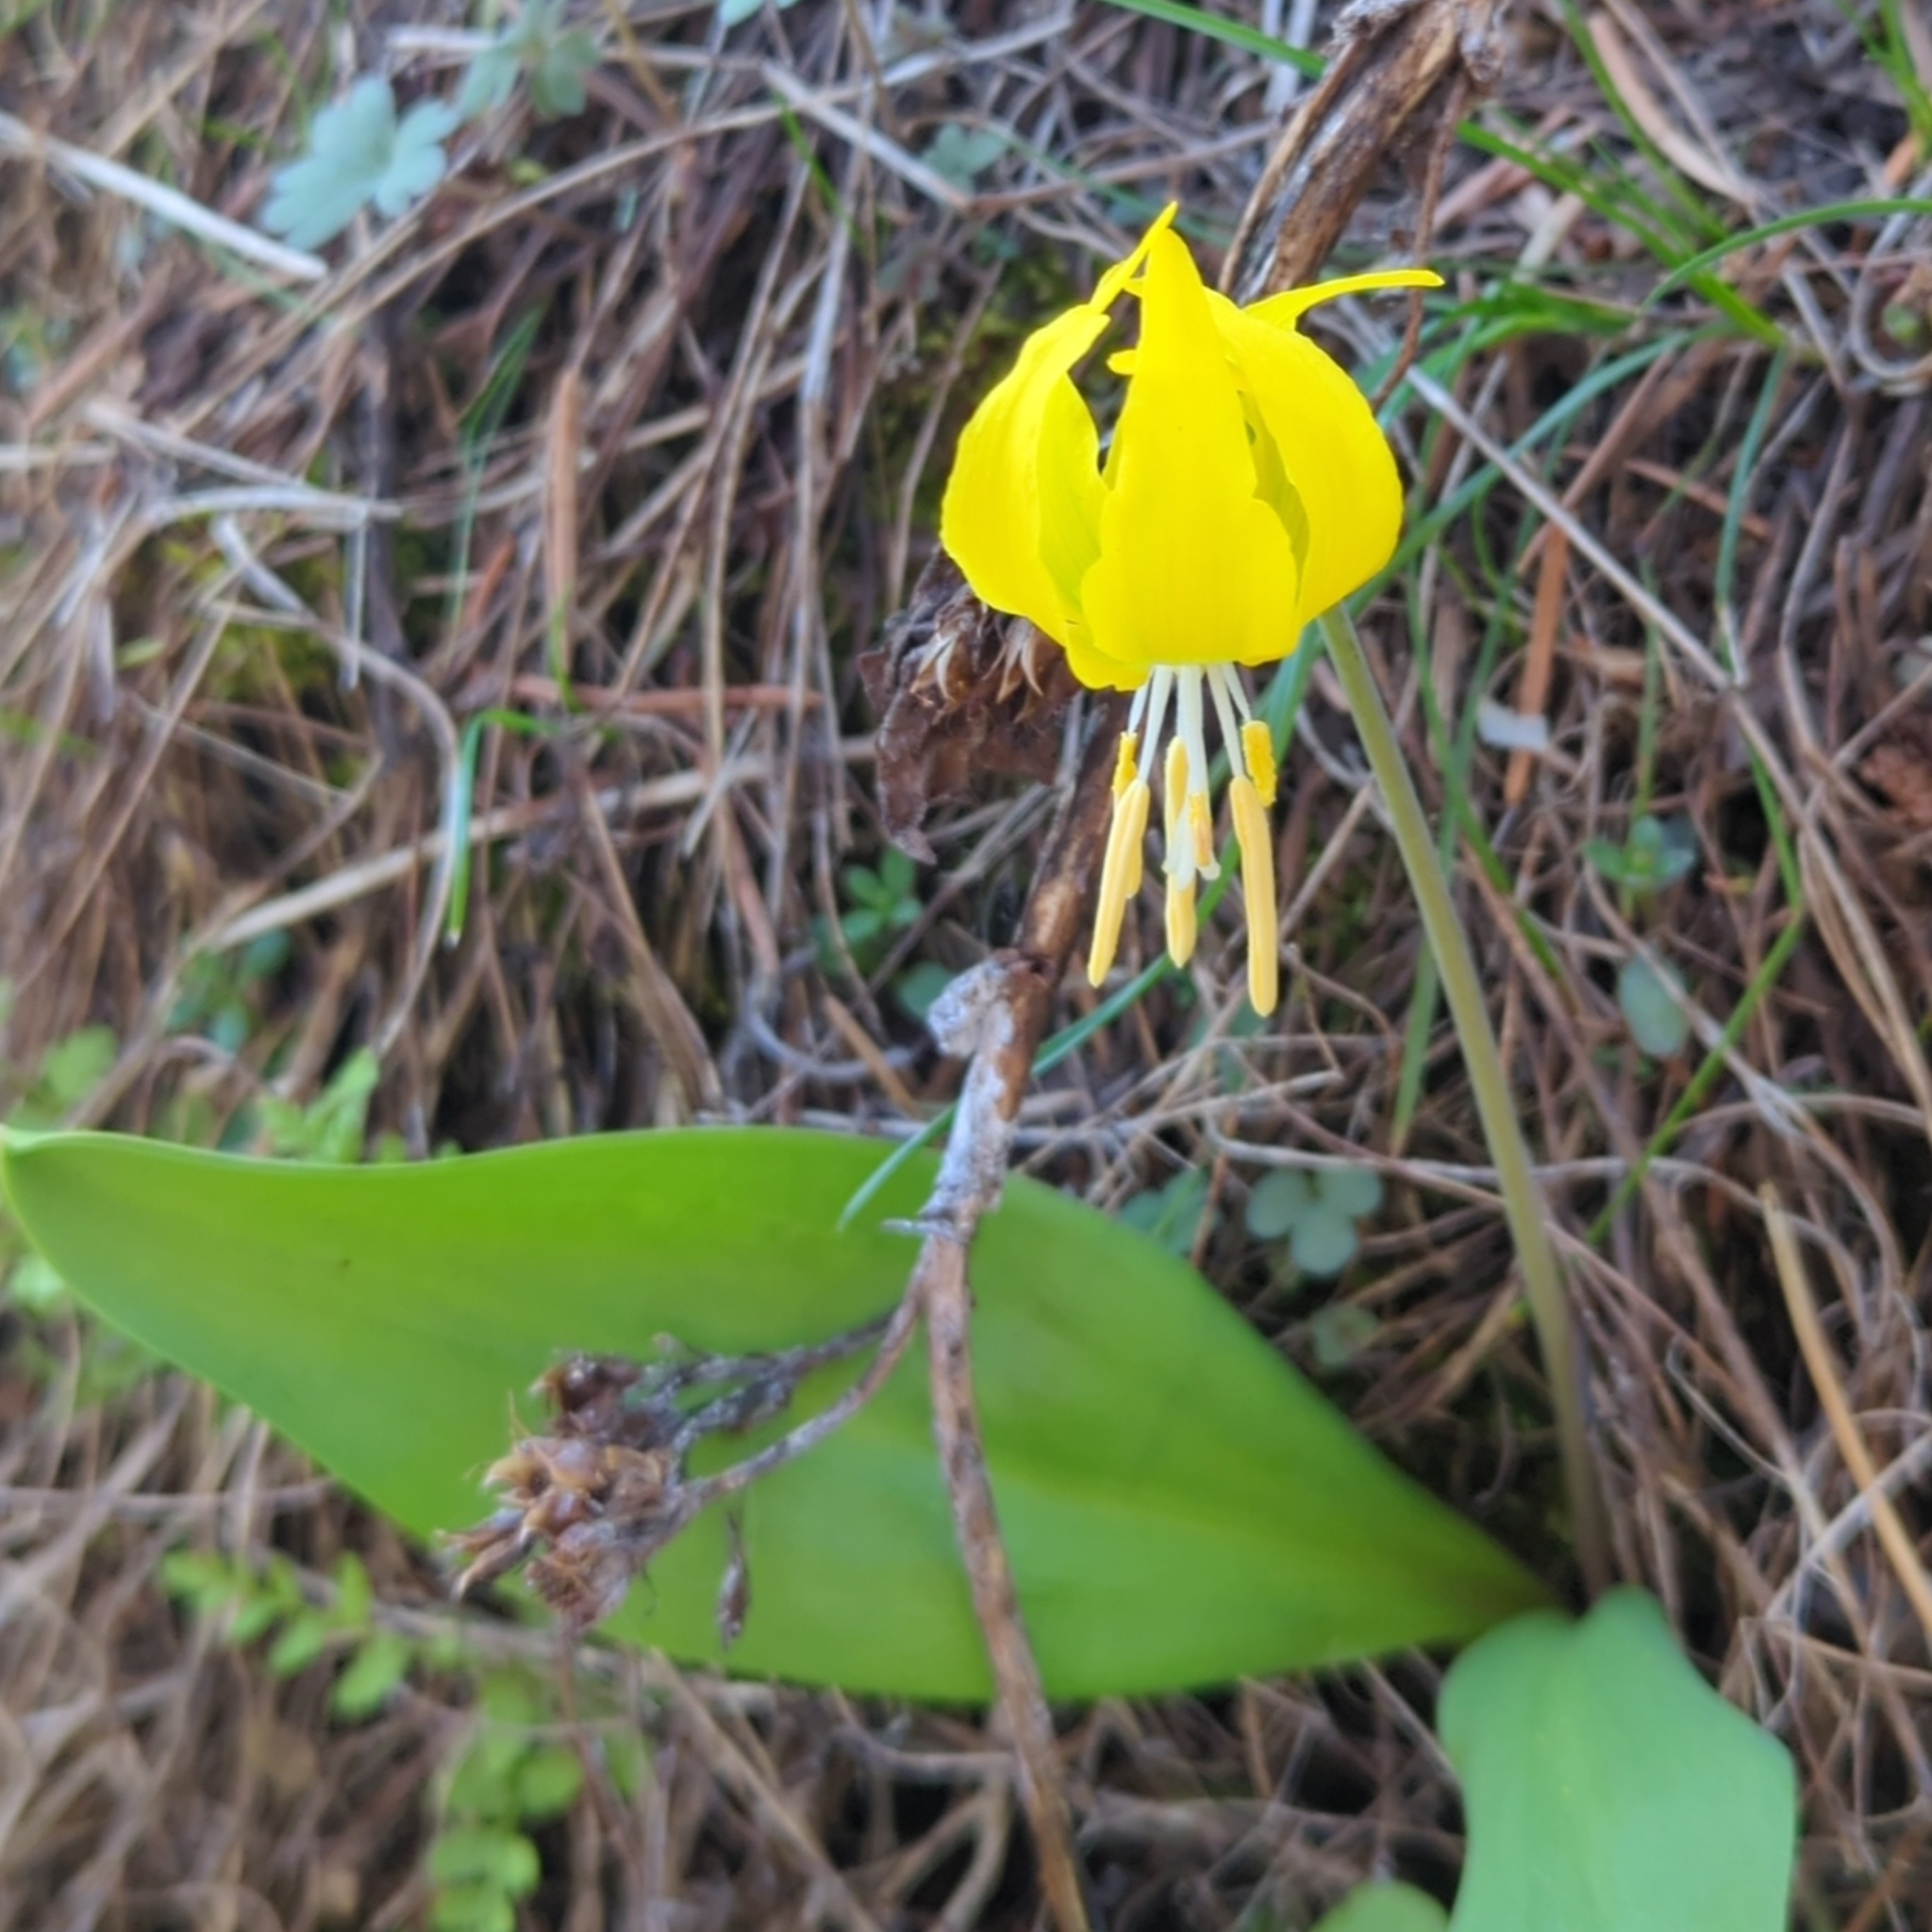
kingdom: Plantae
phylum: Tracheophyta
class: Liliopsida
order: Liliales
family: Liliaceae
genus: Erythronium
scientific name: Erythronium grandiflorum
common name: Avalanche-lily
